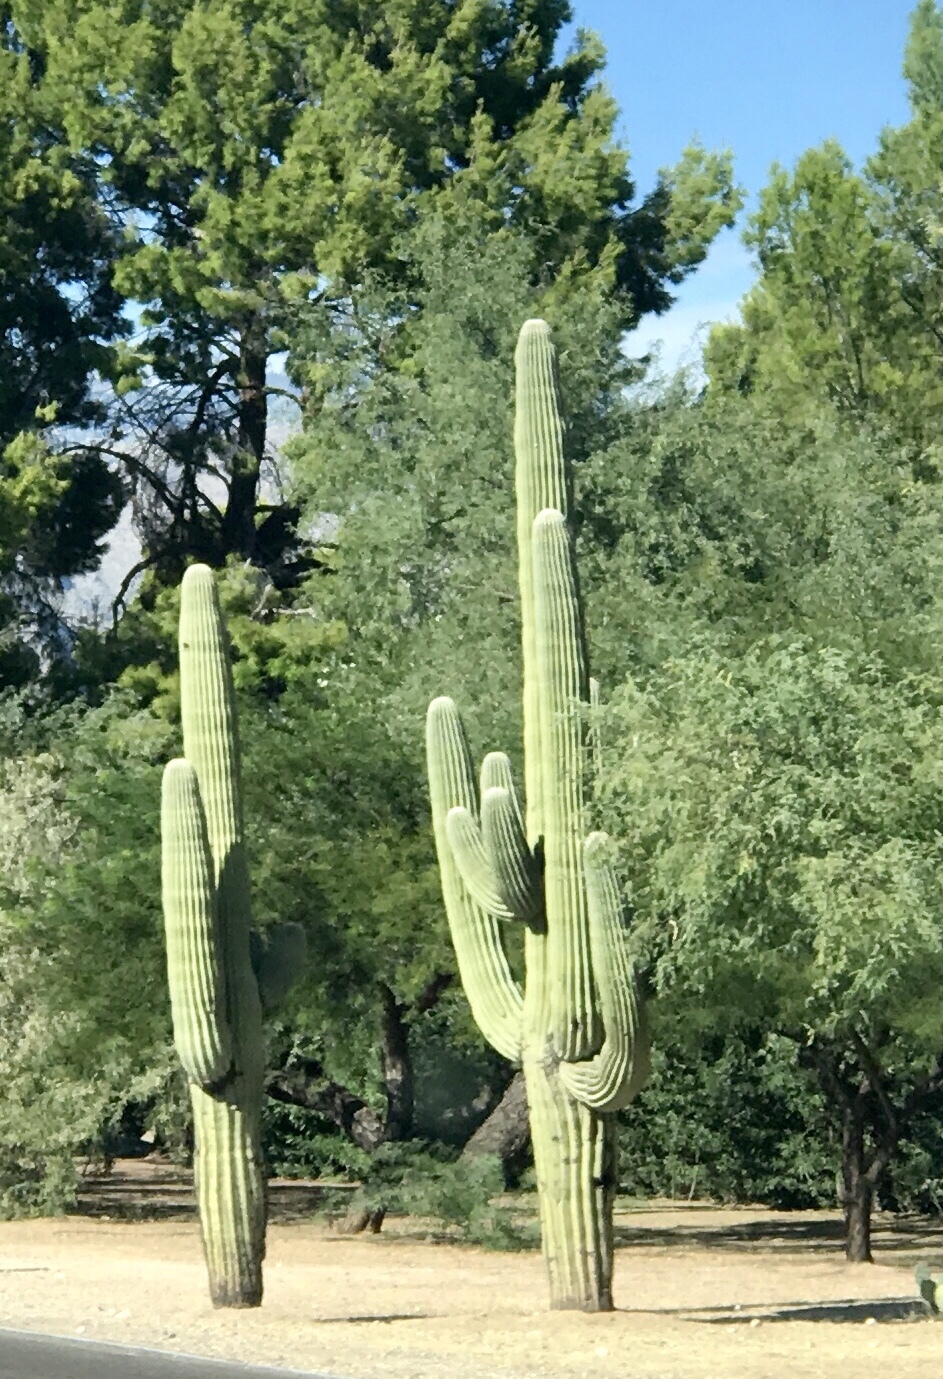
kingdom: Plantae
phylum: Tracheophyta
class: Magnoliopsida
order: Caryophyllales
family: Cactaceae
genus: Carnegiea
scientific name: Carnegiea gigantea
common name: Saguaro
